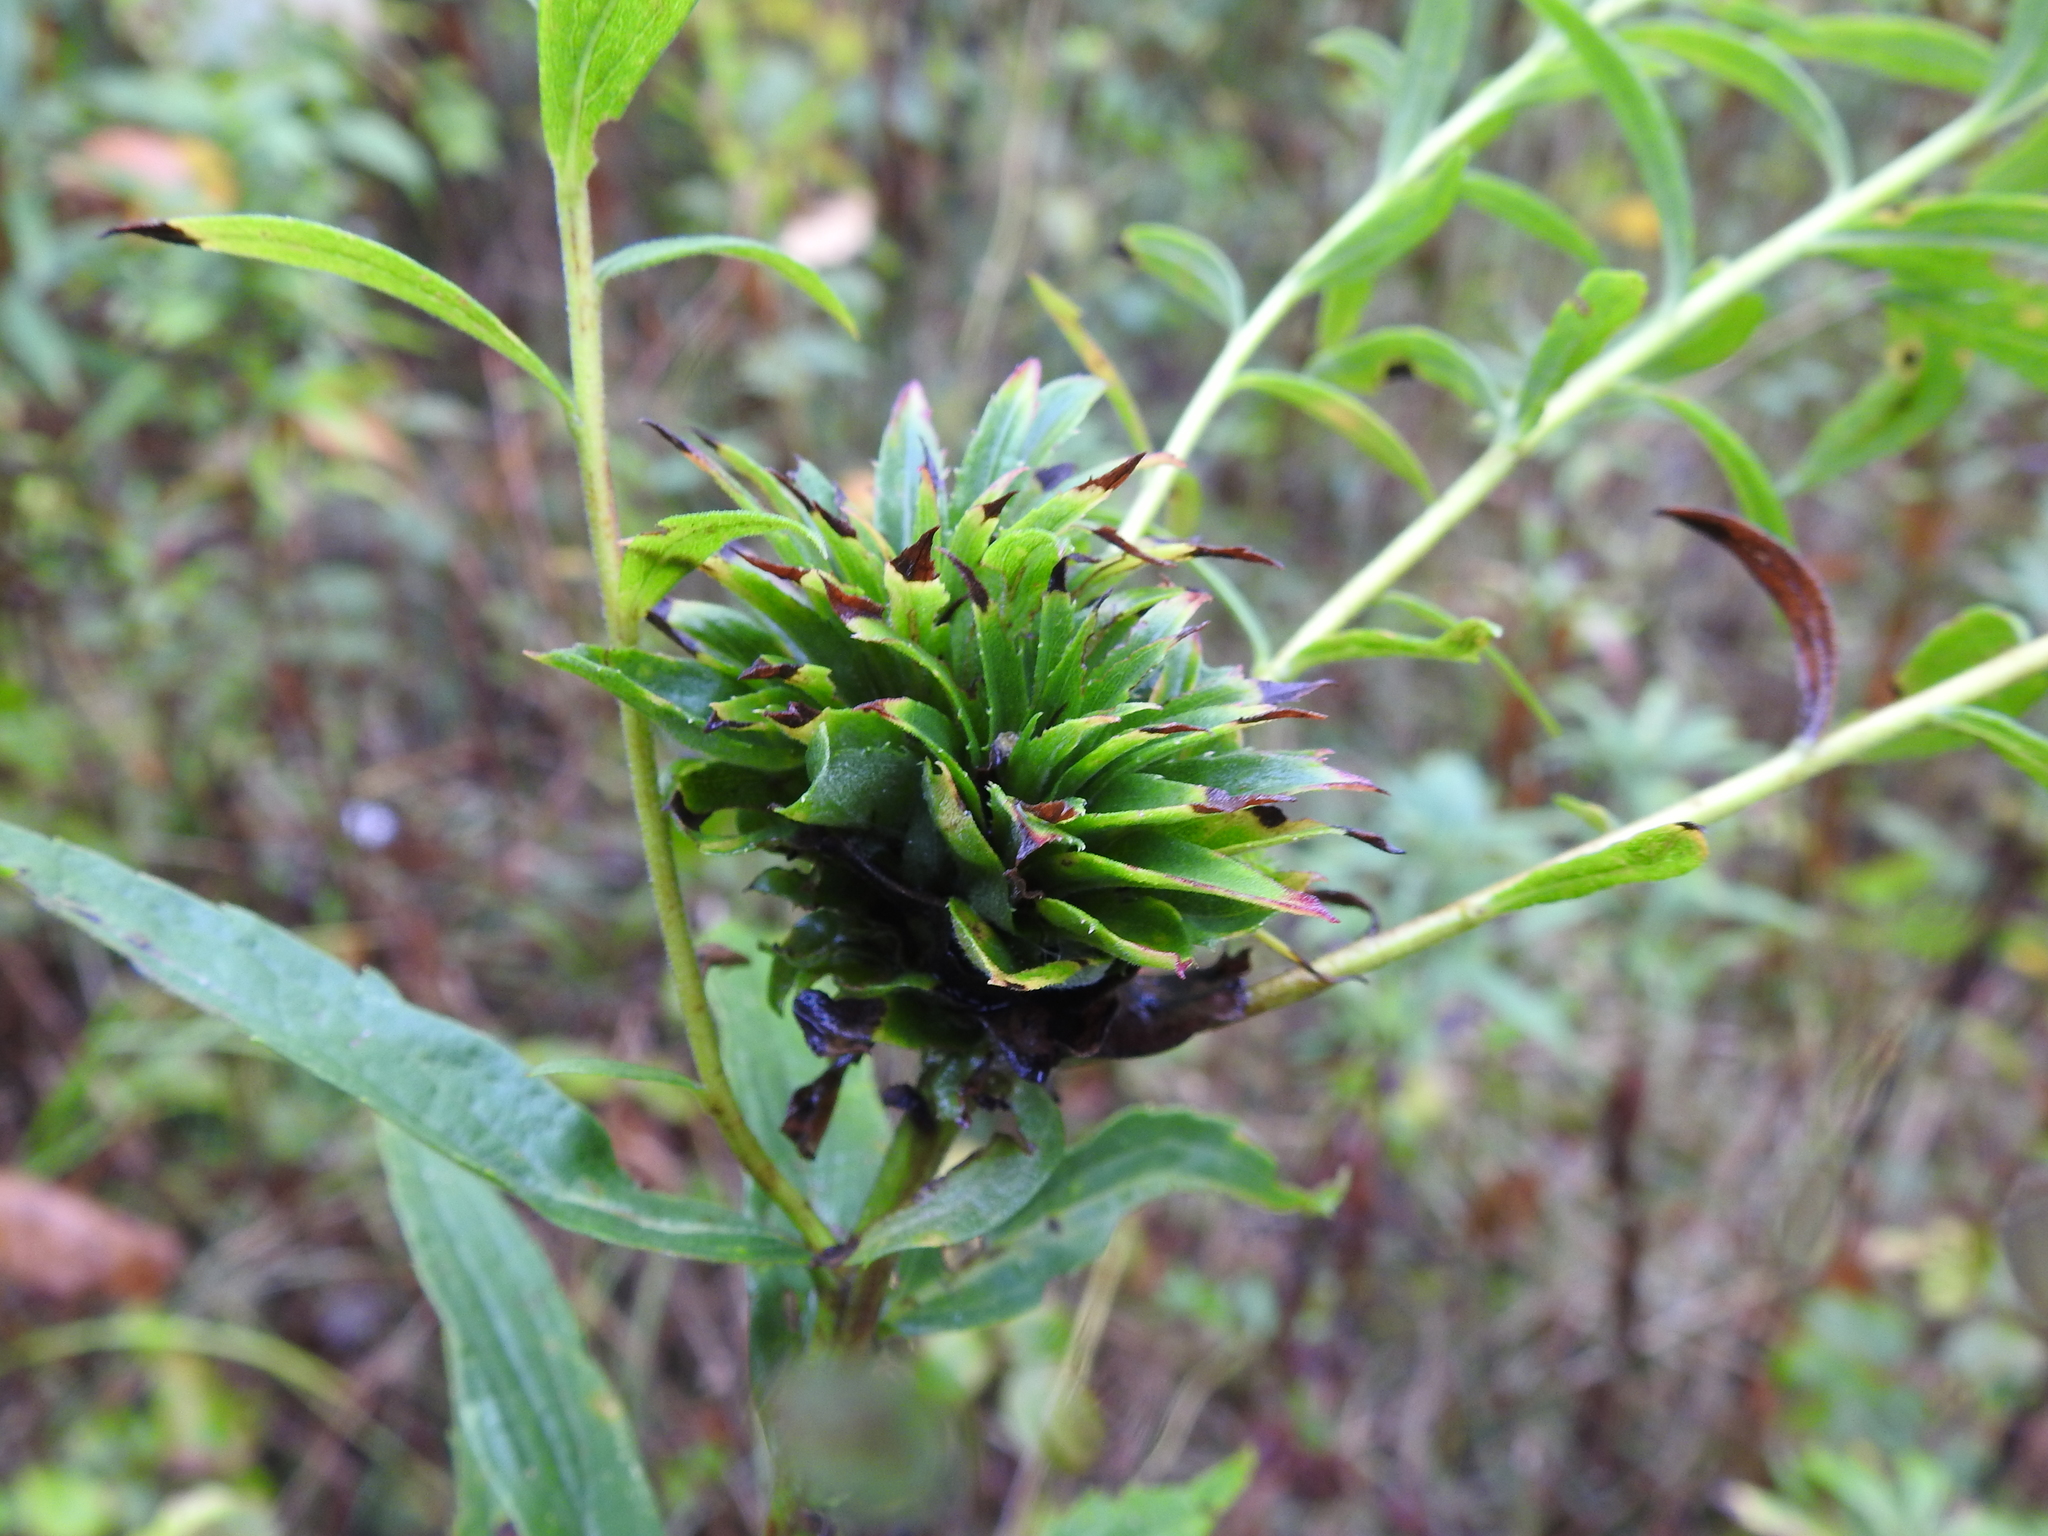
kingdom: Animalia
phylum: Arthropoda
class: Insecta
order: Diptera
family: Cecidomyiidae
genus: Rhopalomyia
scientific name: Rhopalomyia solidaginis
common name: Goldenrod bunch gall midge
